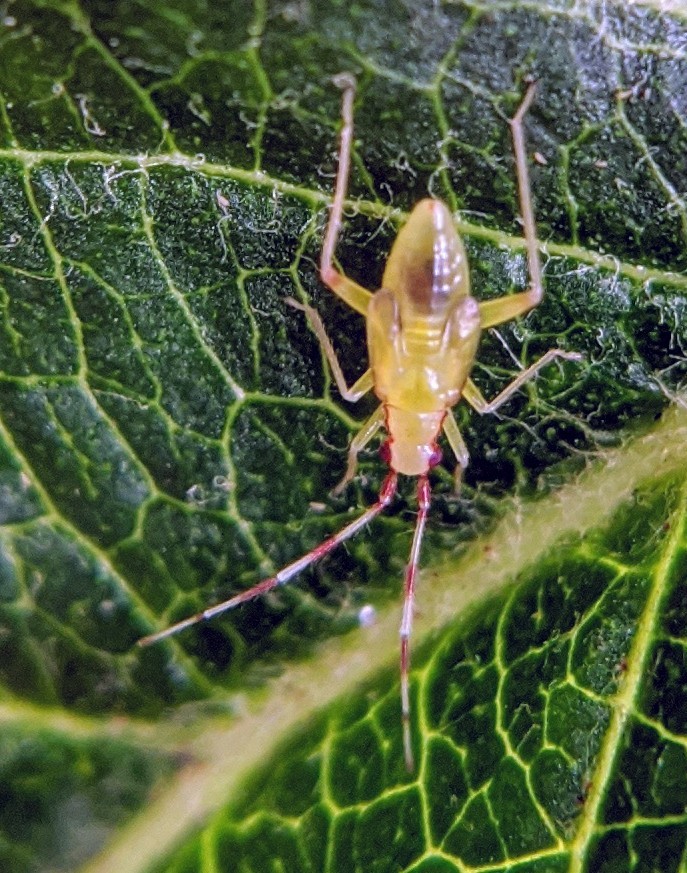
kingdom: Animalia
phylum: Arthropoda
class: Insecta
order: Hemiptera
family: Miridae
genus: Campyloneura
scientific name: Campyloneura virgula
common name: Predatory bug
